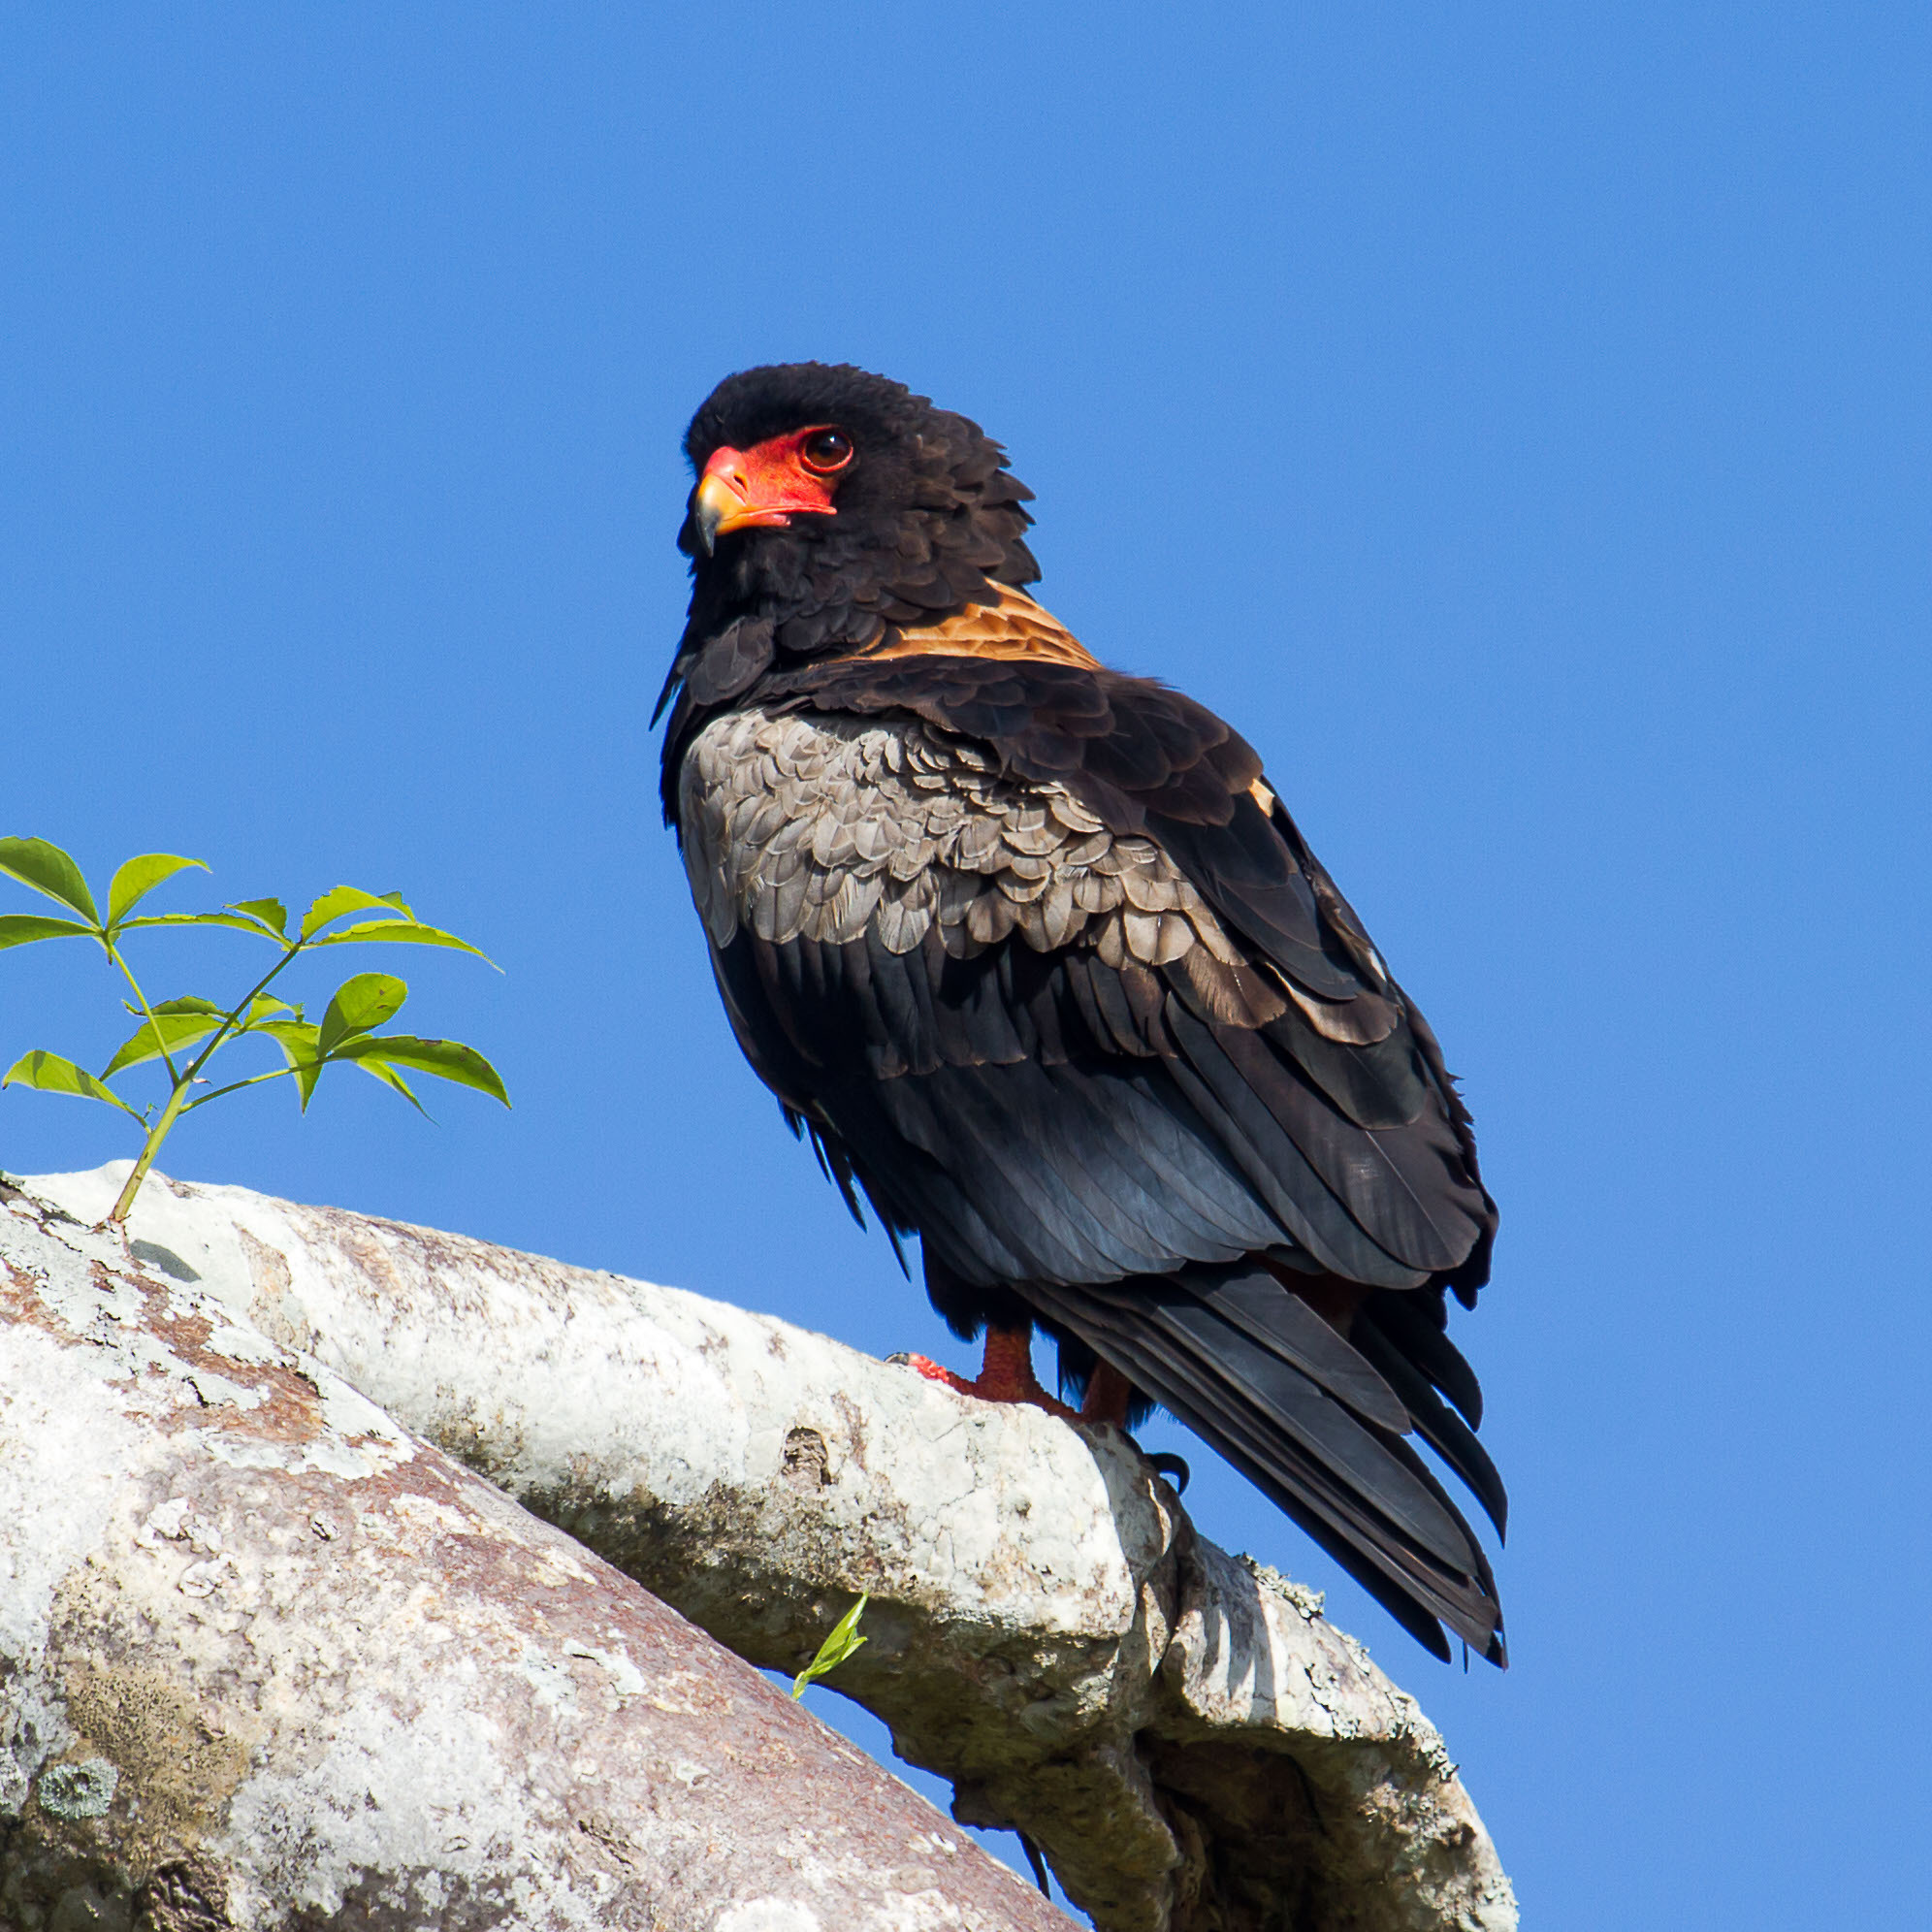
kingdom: Animalia
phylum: Chordata
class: Aves
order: Accipitriformes
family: Accipitridae
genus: Terathopius
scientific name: Terathopius ecaudatus
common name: Bateleur
